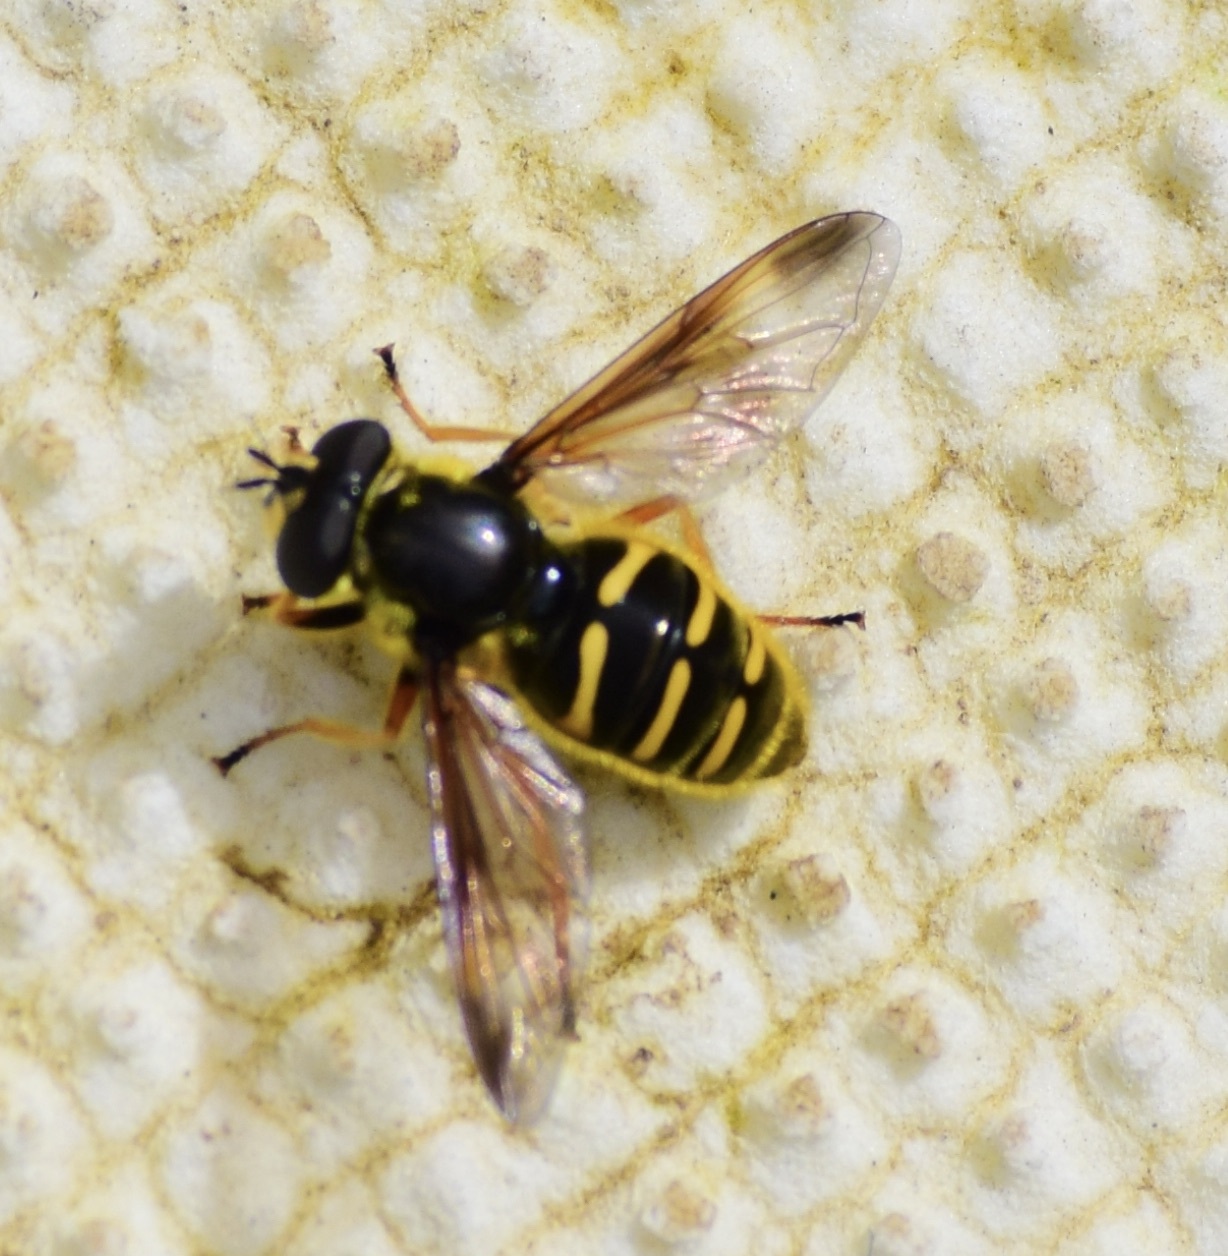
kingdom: Animalia
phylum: Arthropoda
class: Insecta
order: Diptera
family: Syrphidae
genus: Sericomyia
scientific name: Sericomyia chrysotoxoides
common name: Oblique-banded pond fly
